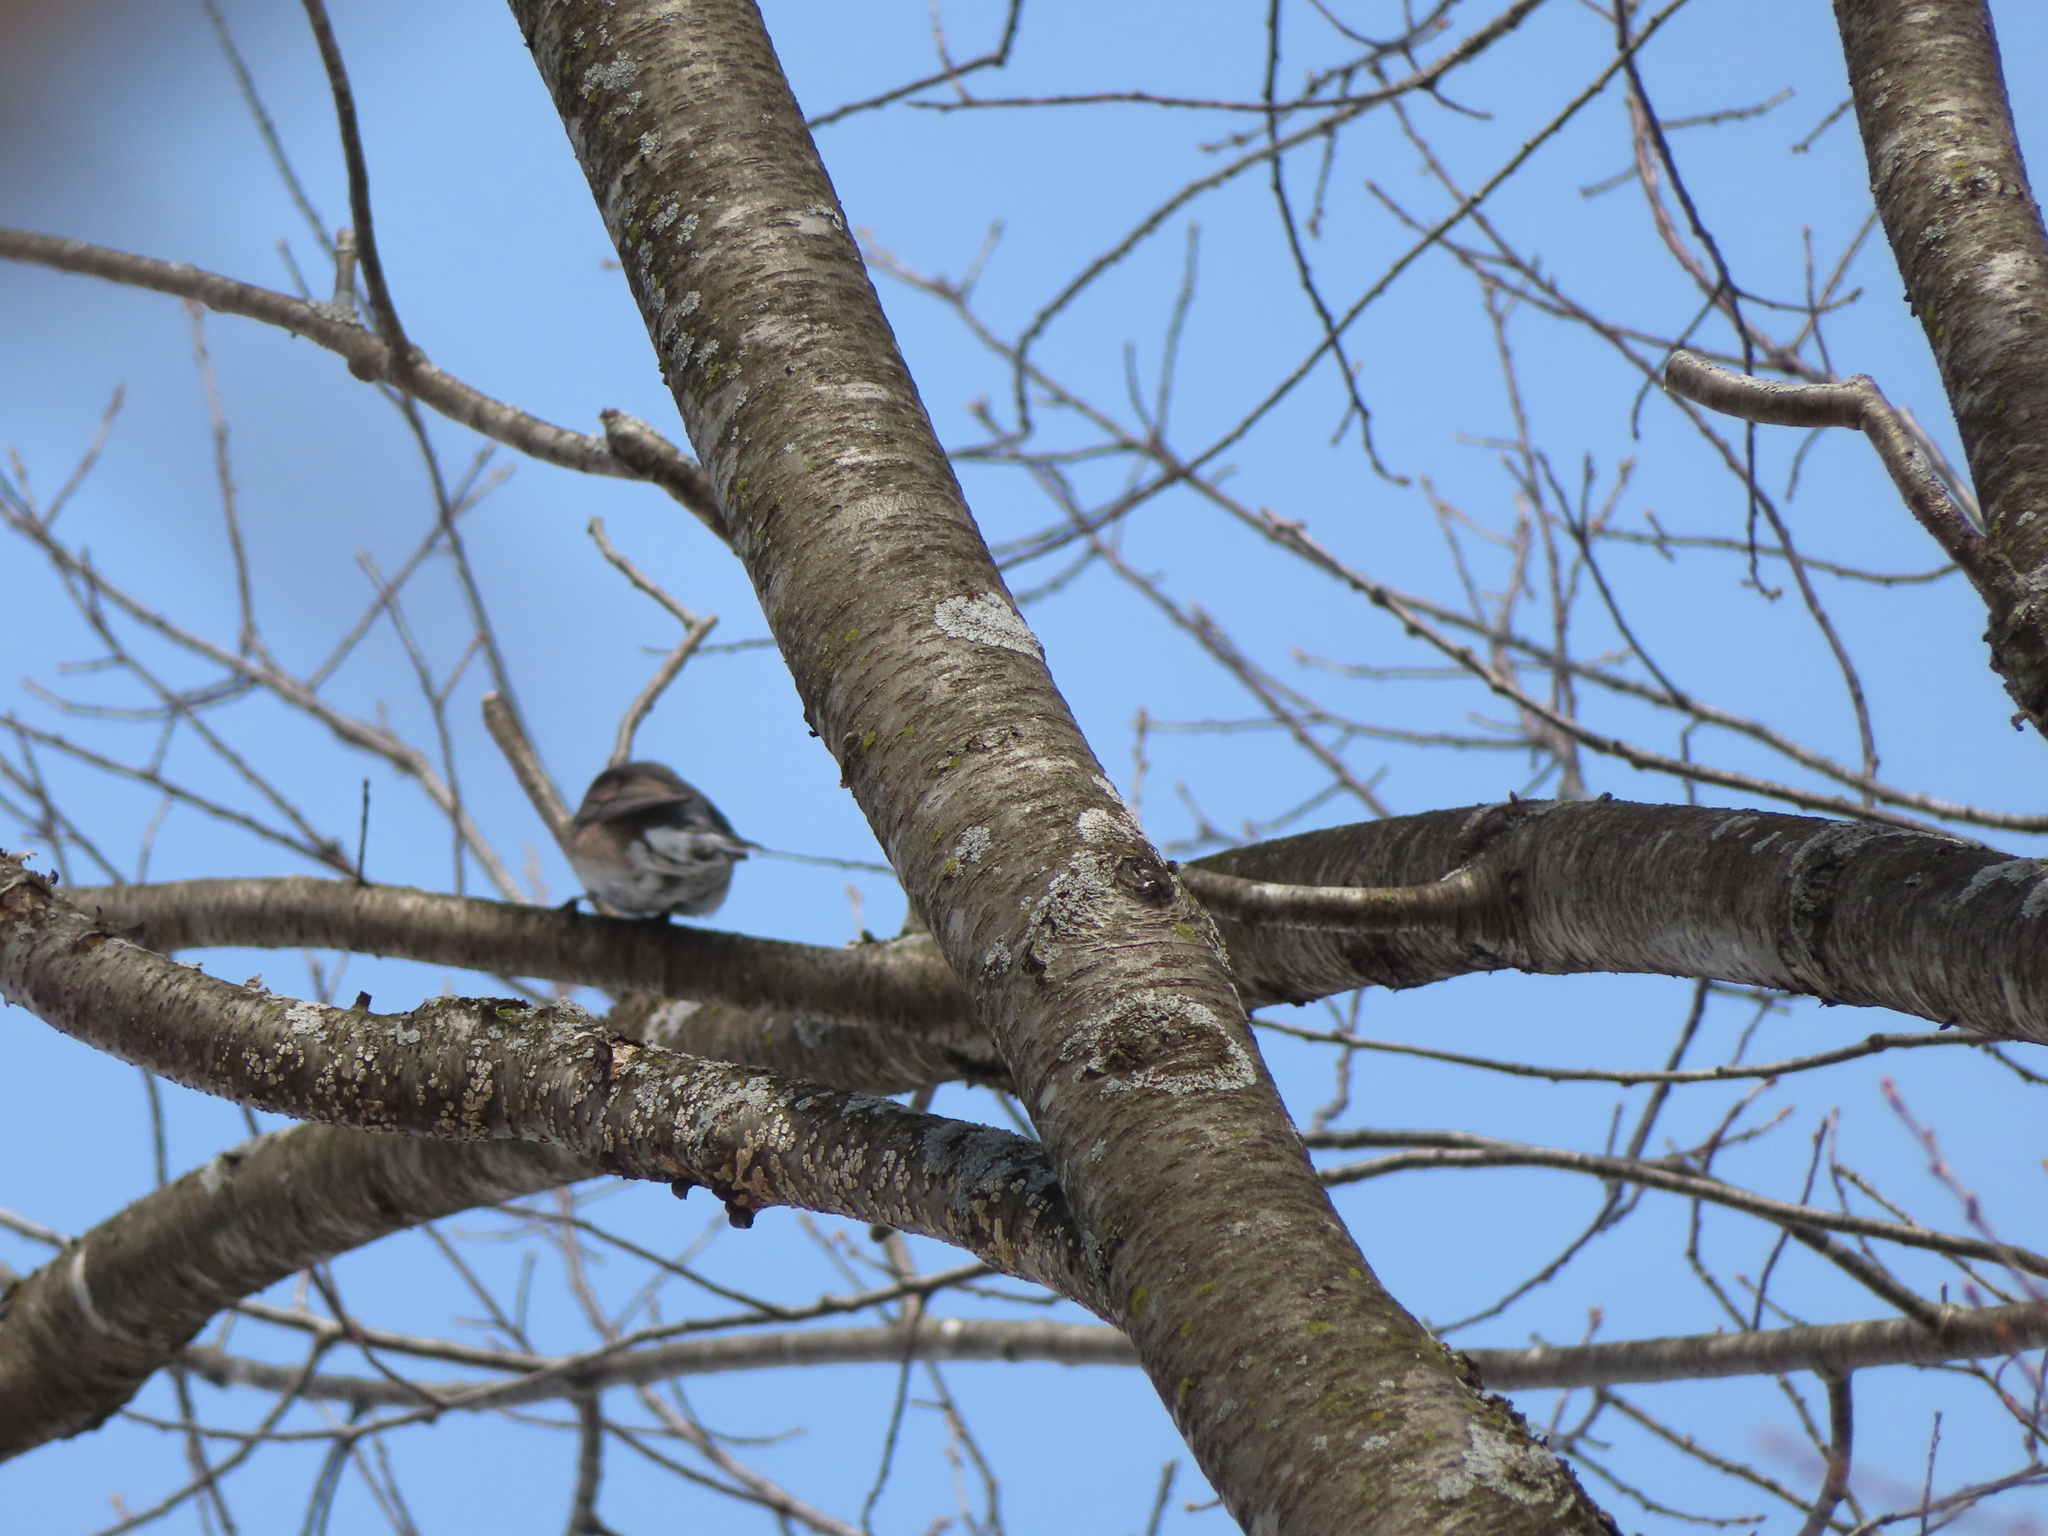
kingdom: Animalia
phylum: Chordata
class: Aves
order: Passeriformes
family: Passerellidae
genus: Junco
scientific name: Junco hyemalis
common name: Dark-eyed junco
